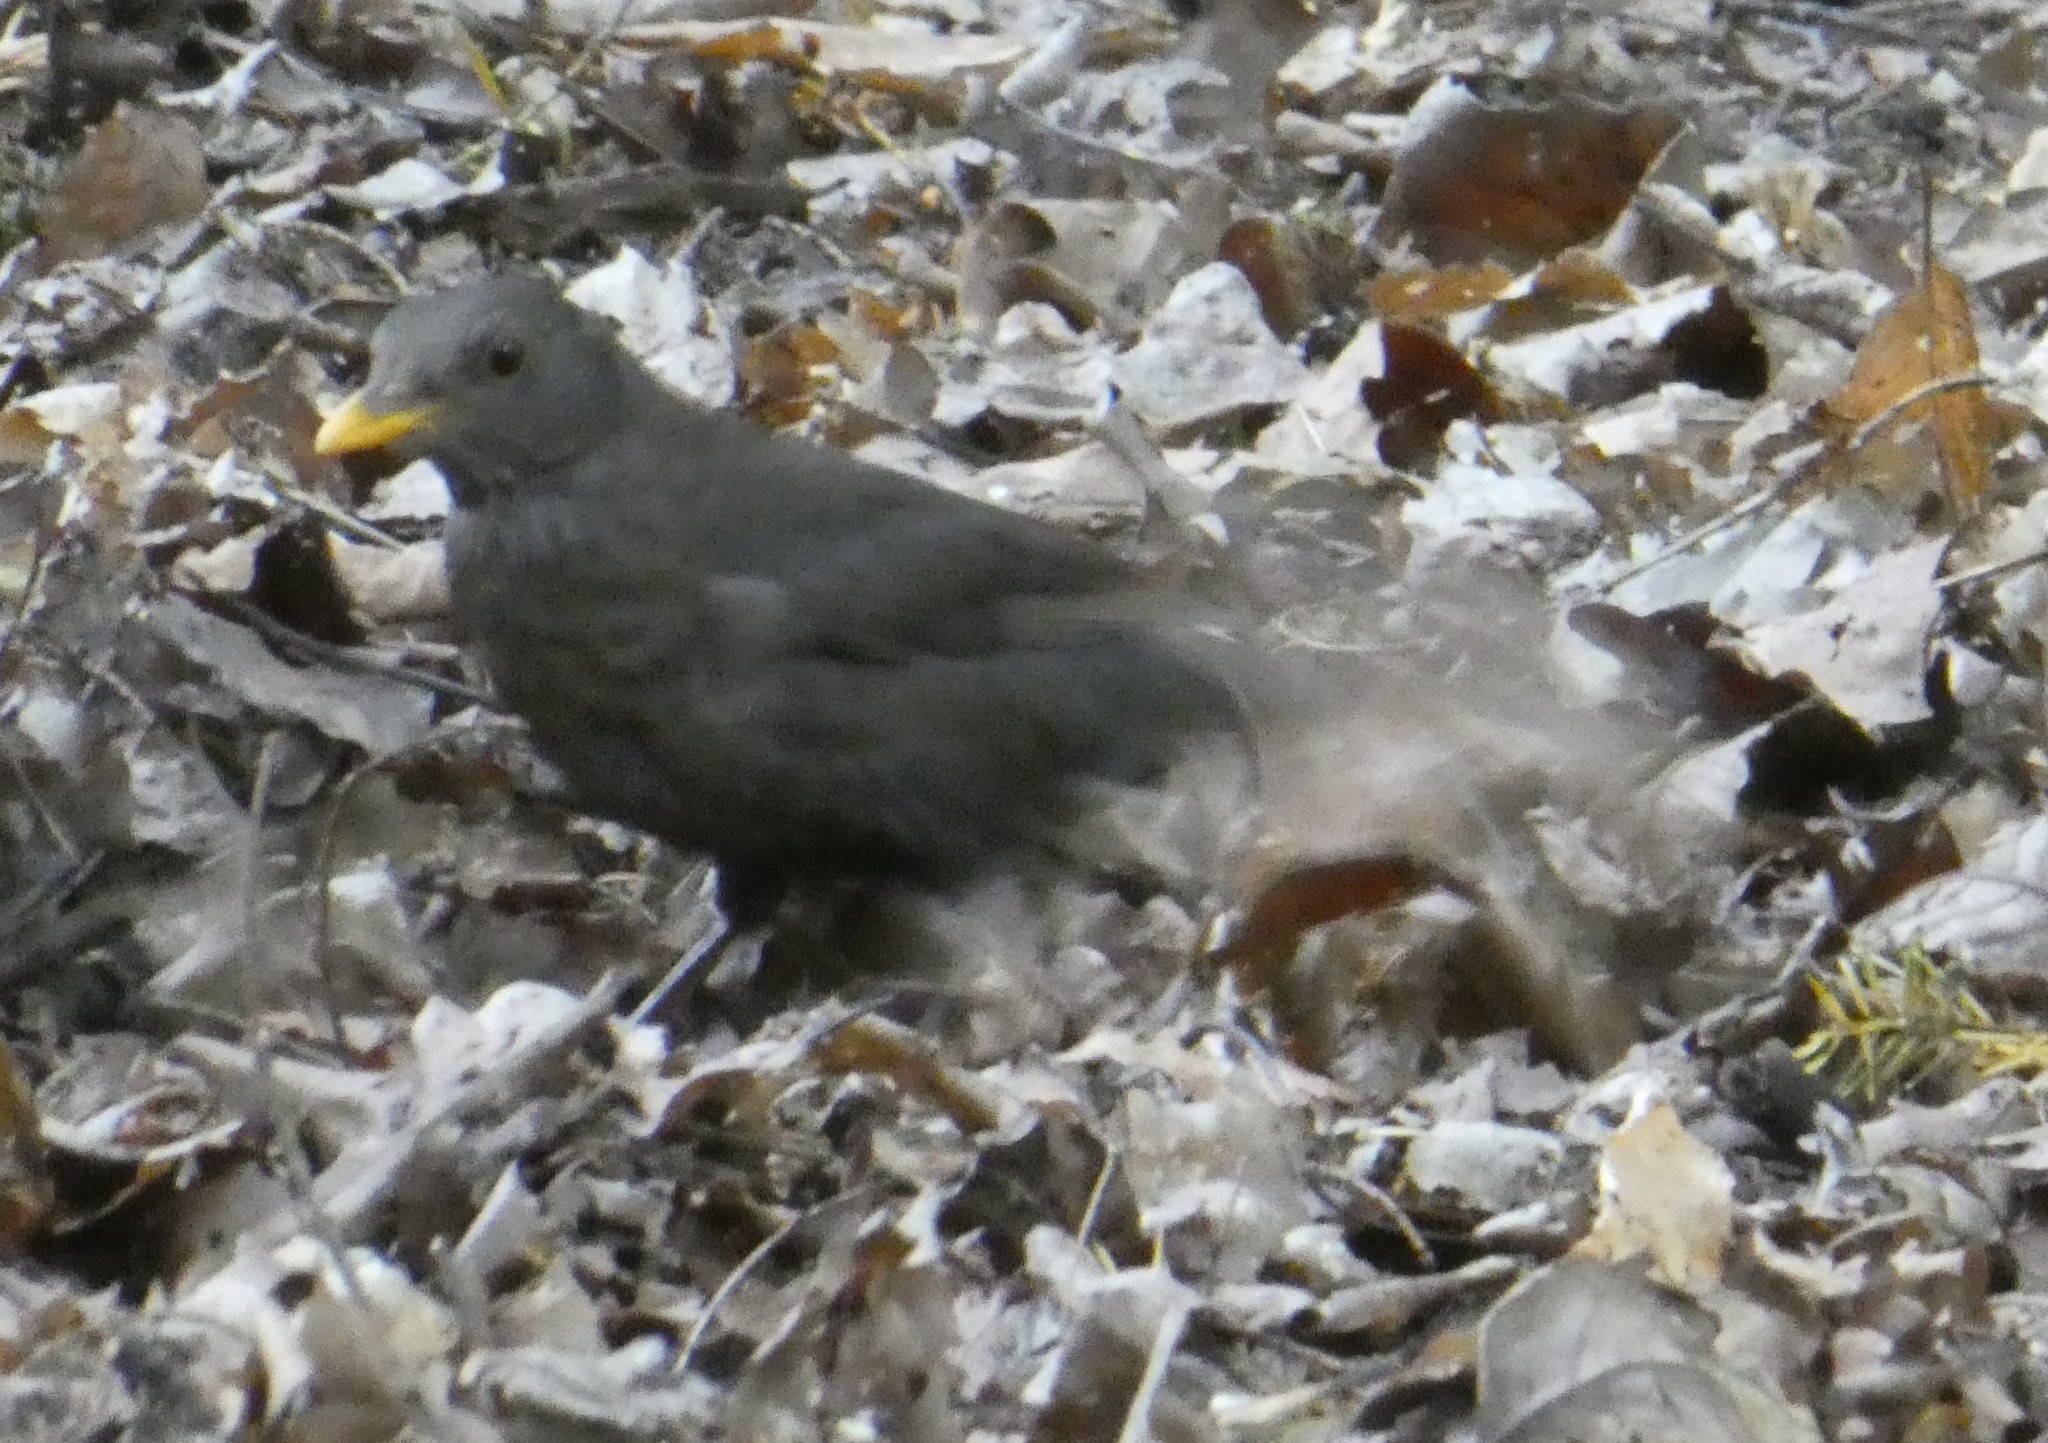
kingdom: Animalia
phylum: Chordata
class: Aves
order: Passeriformes
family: Turdidae
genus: Turdus
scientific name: Turdus merula
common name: Common blackbird
